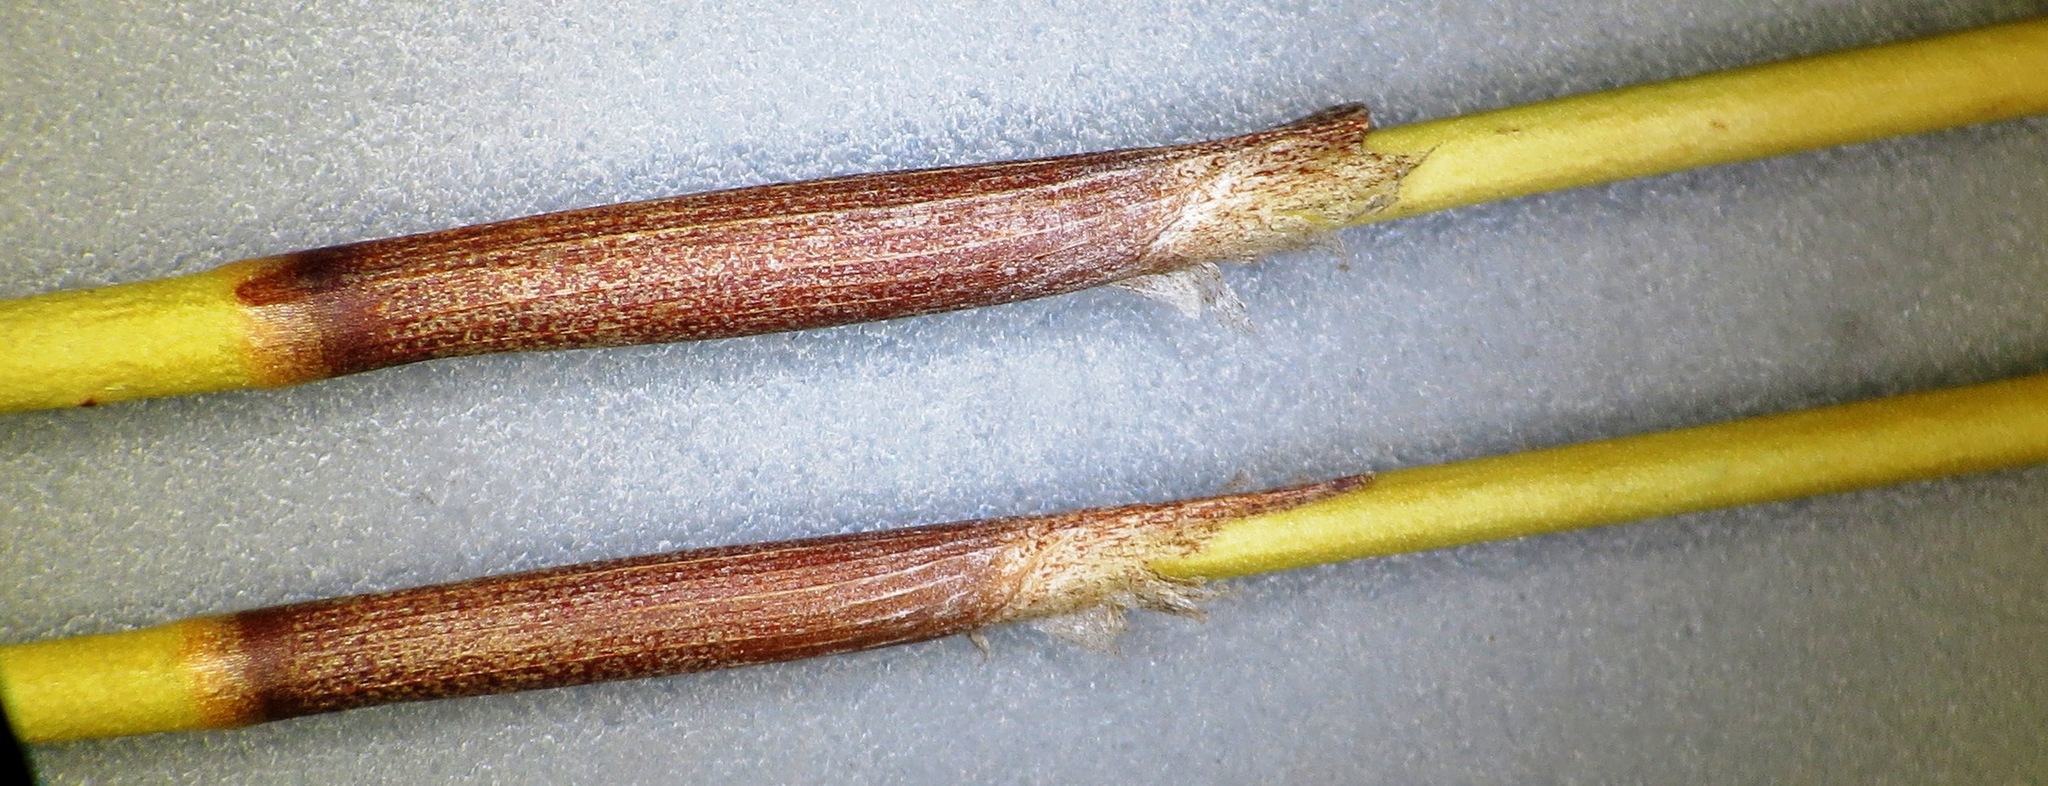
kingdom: Plantae
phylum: Tracheophyta
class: Liliopsida
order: Poales
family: Restionaceae
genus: Restio
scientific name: Restio bifarius
